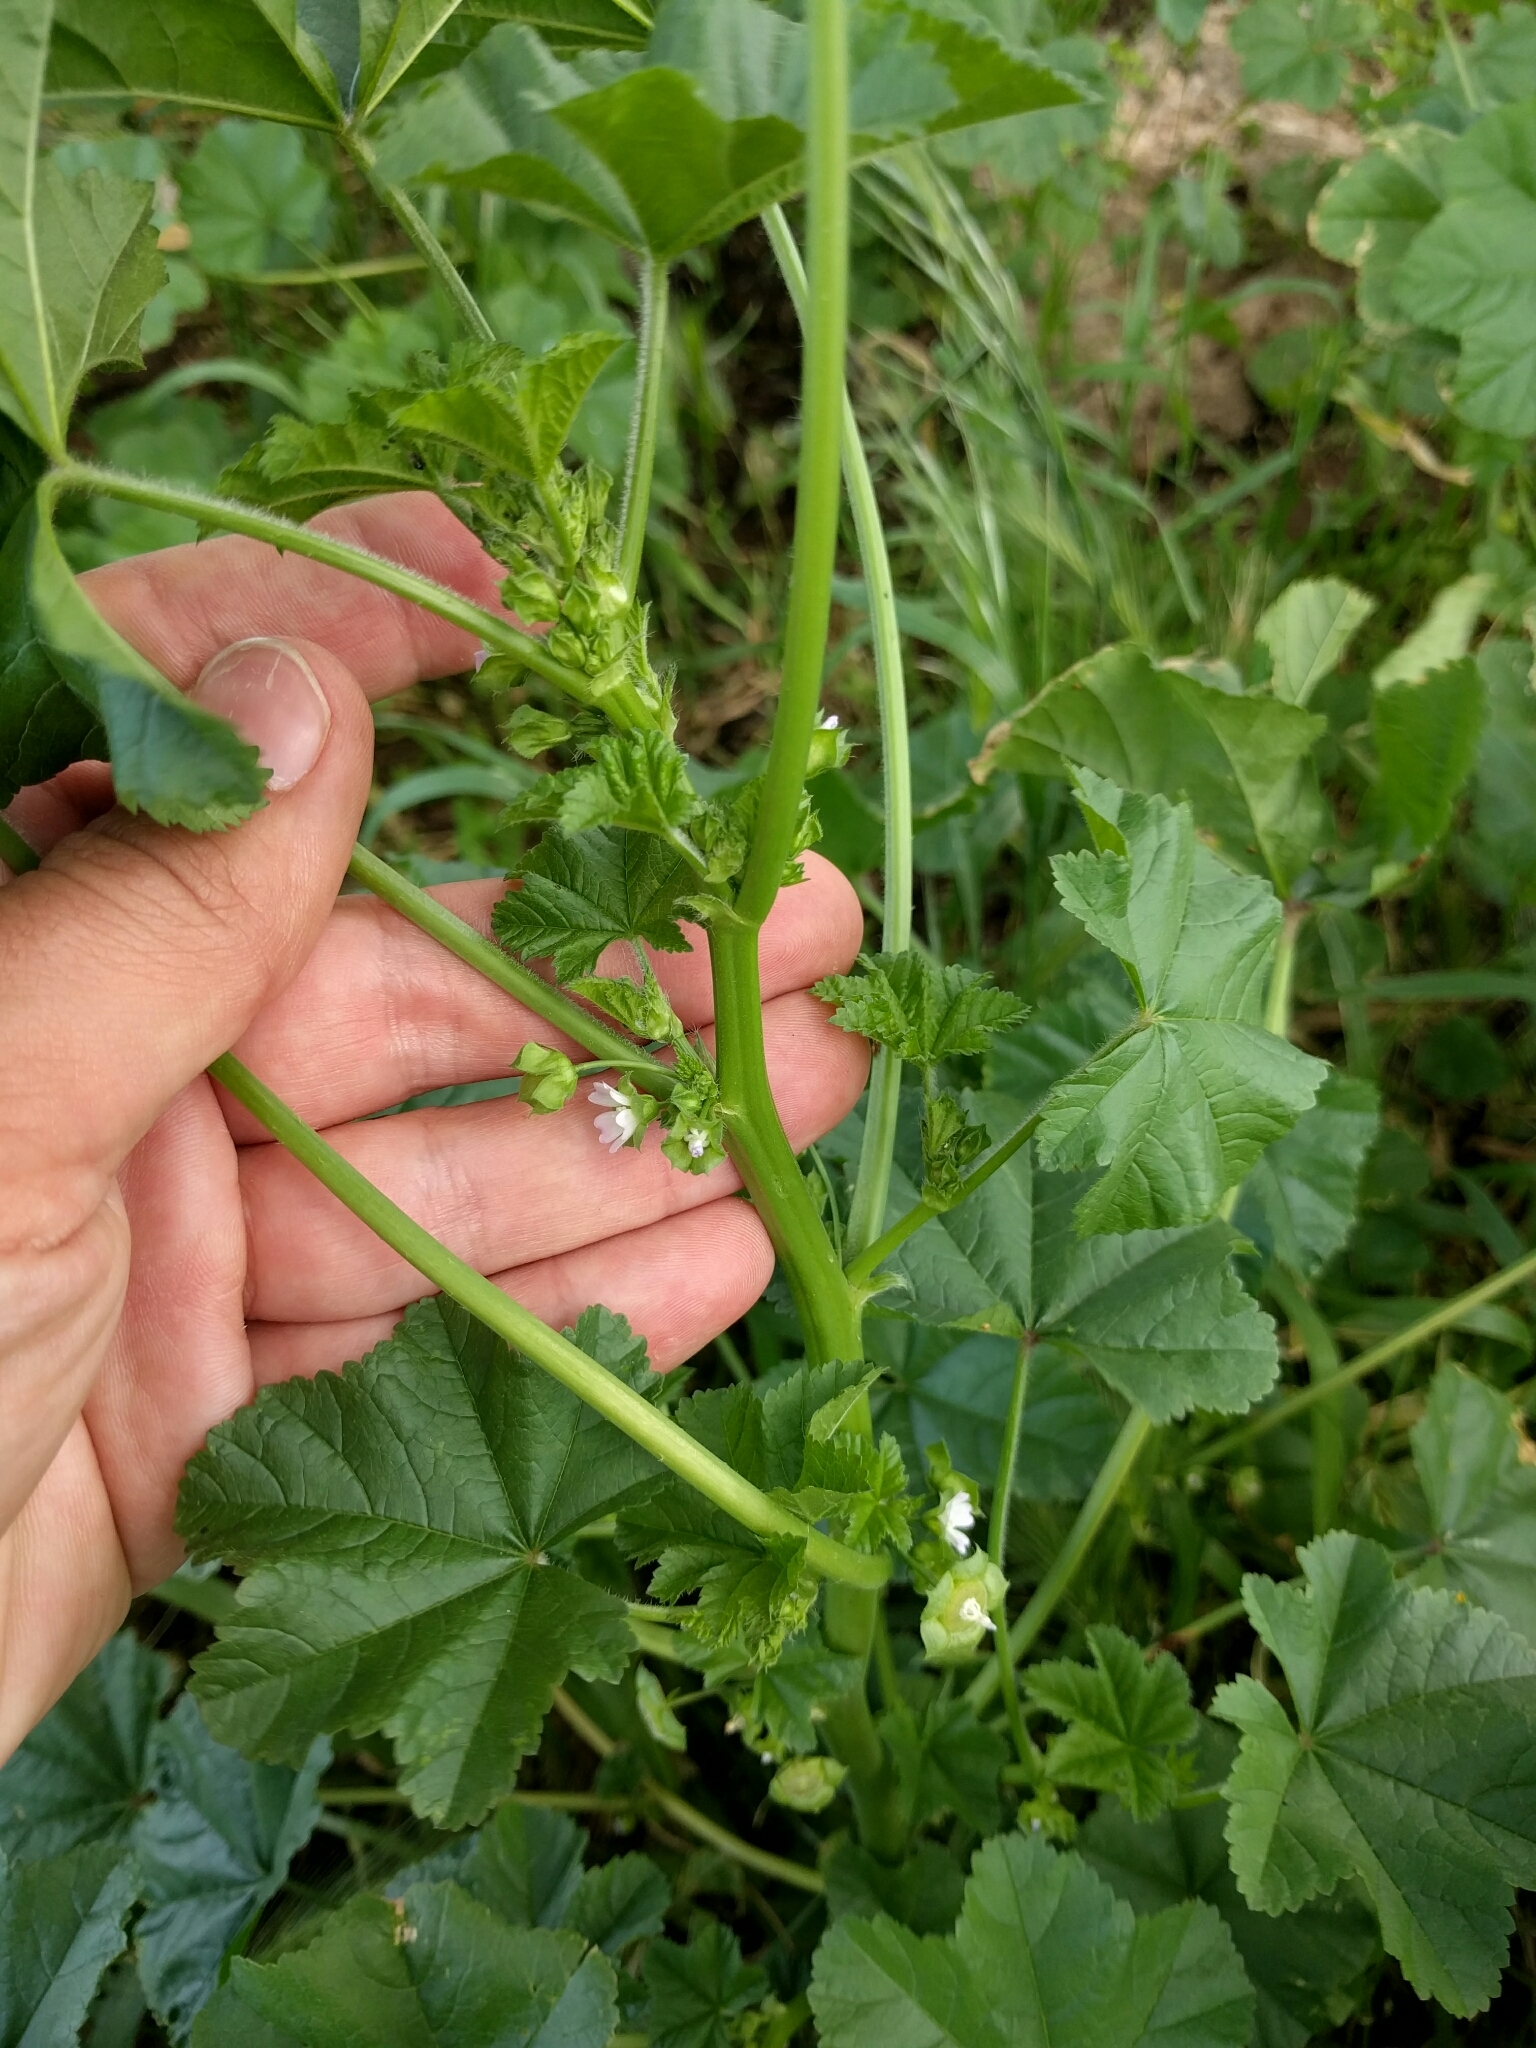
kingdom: Plantae
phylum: Tracheophyta
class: Magnoliopsida
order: Malvales
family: Malvaceae
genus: Malva
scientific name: Malva parviflora
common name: Least mallow
